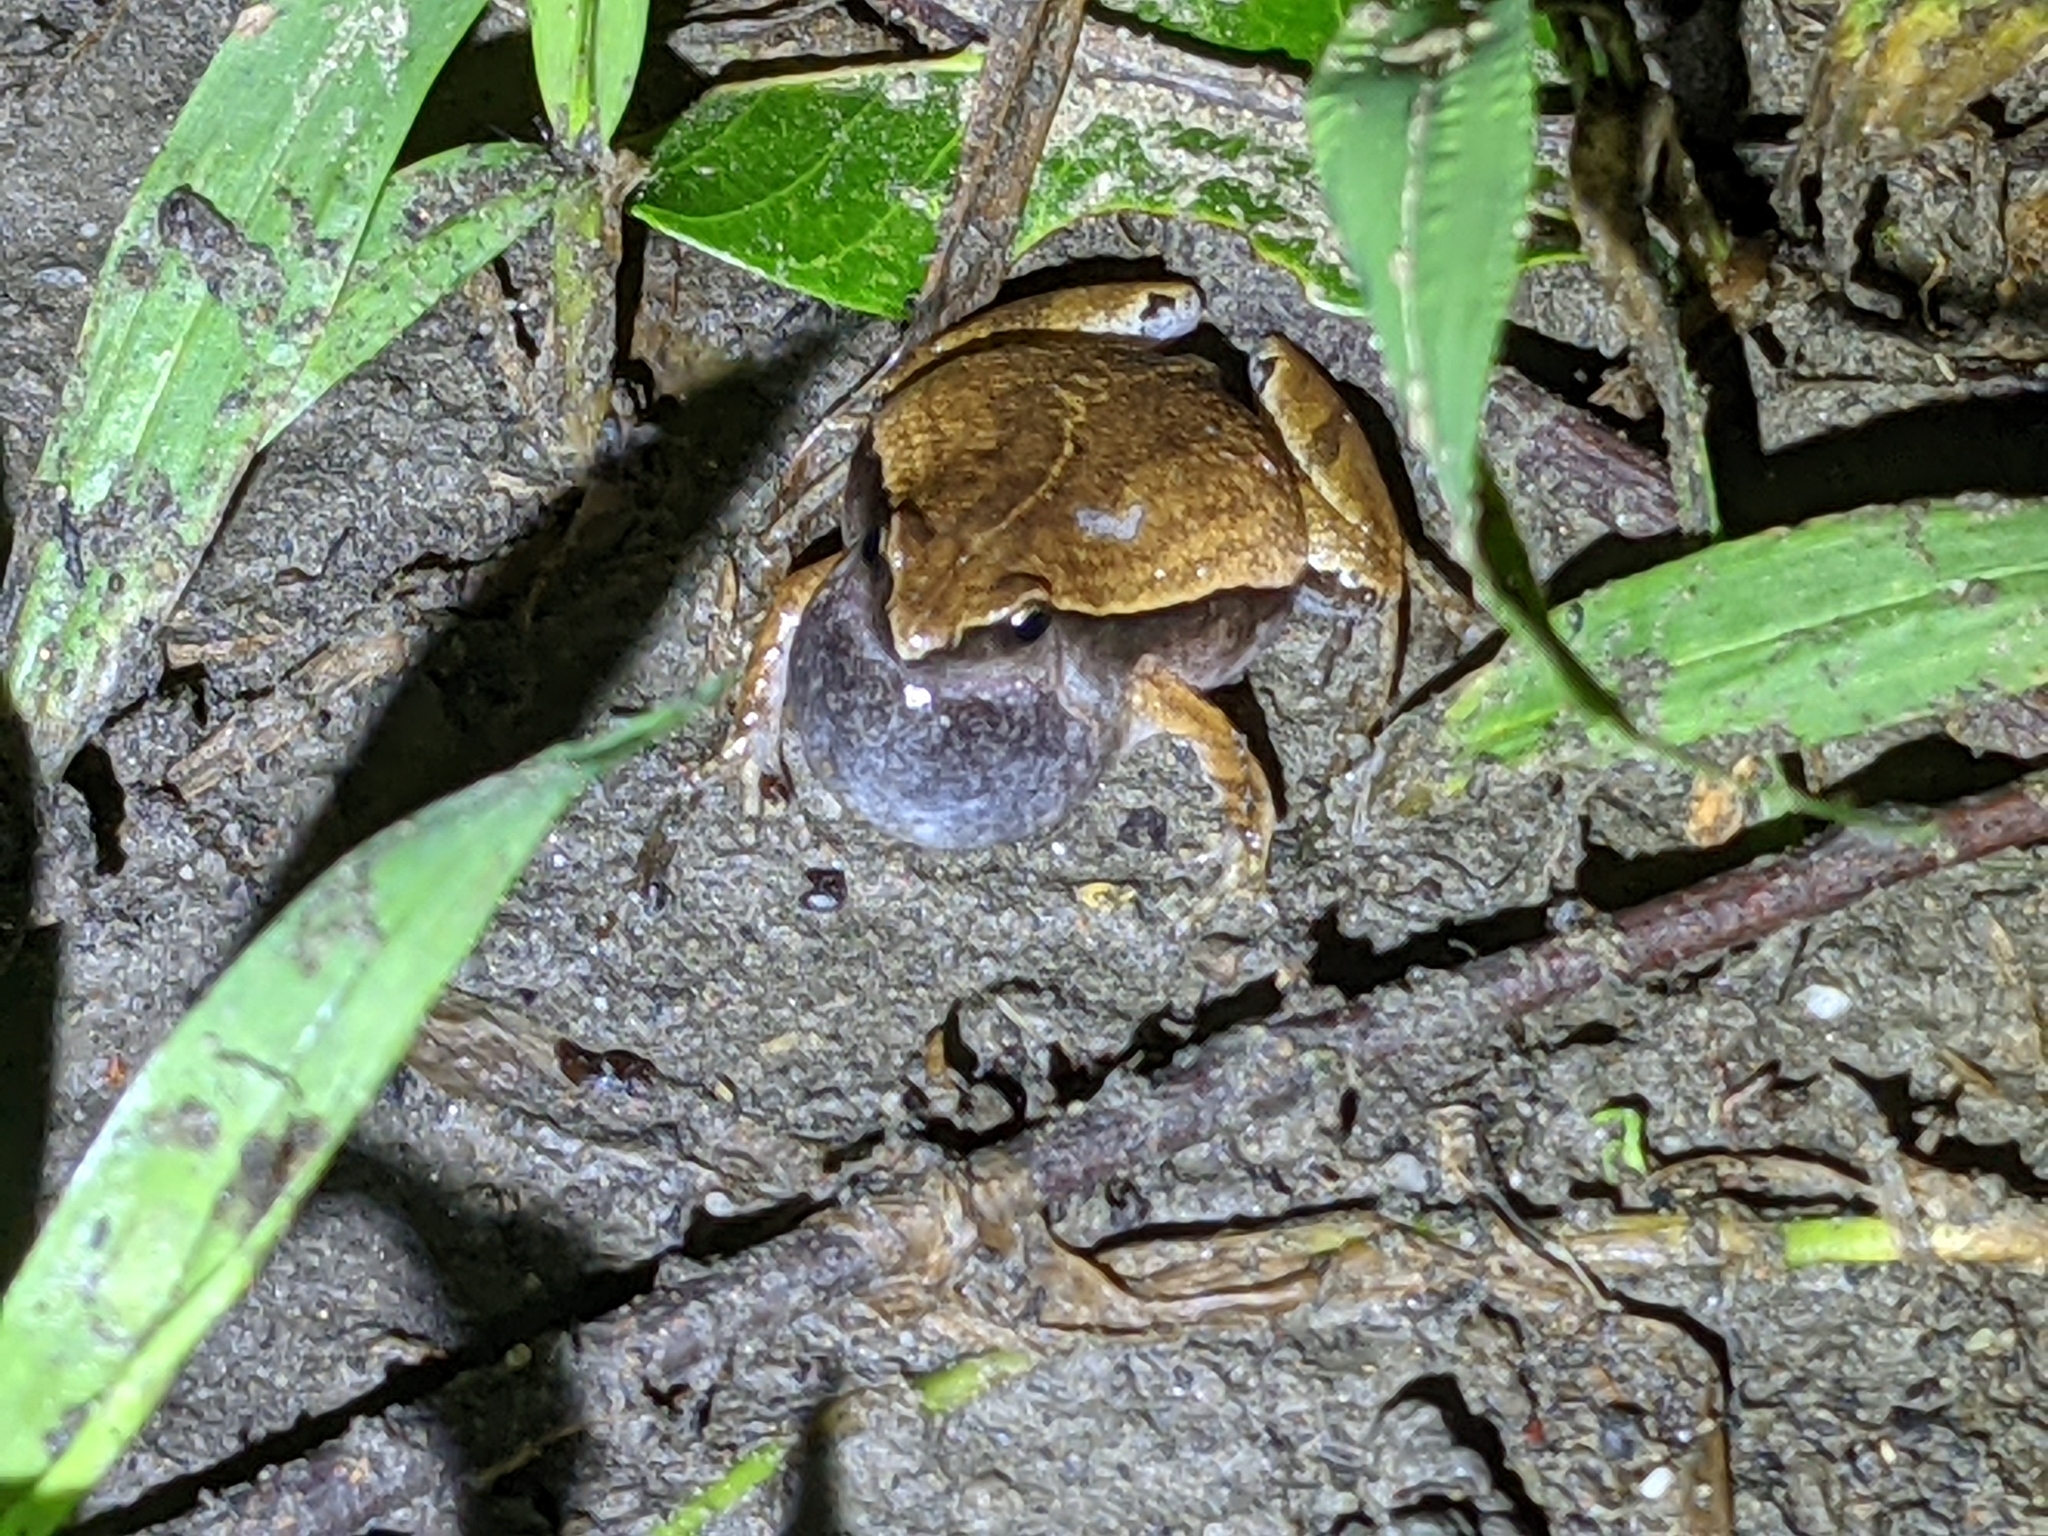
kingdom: Animalia
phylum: Chordata
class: Amphibia
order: Anura
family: Microhylidae
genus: Microhyla
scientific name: Microhyla heymonsi
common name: Taiwan rice frog,dark sided chorus frog
